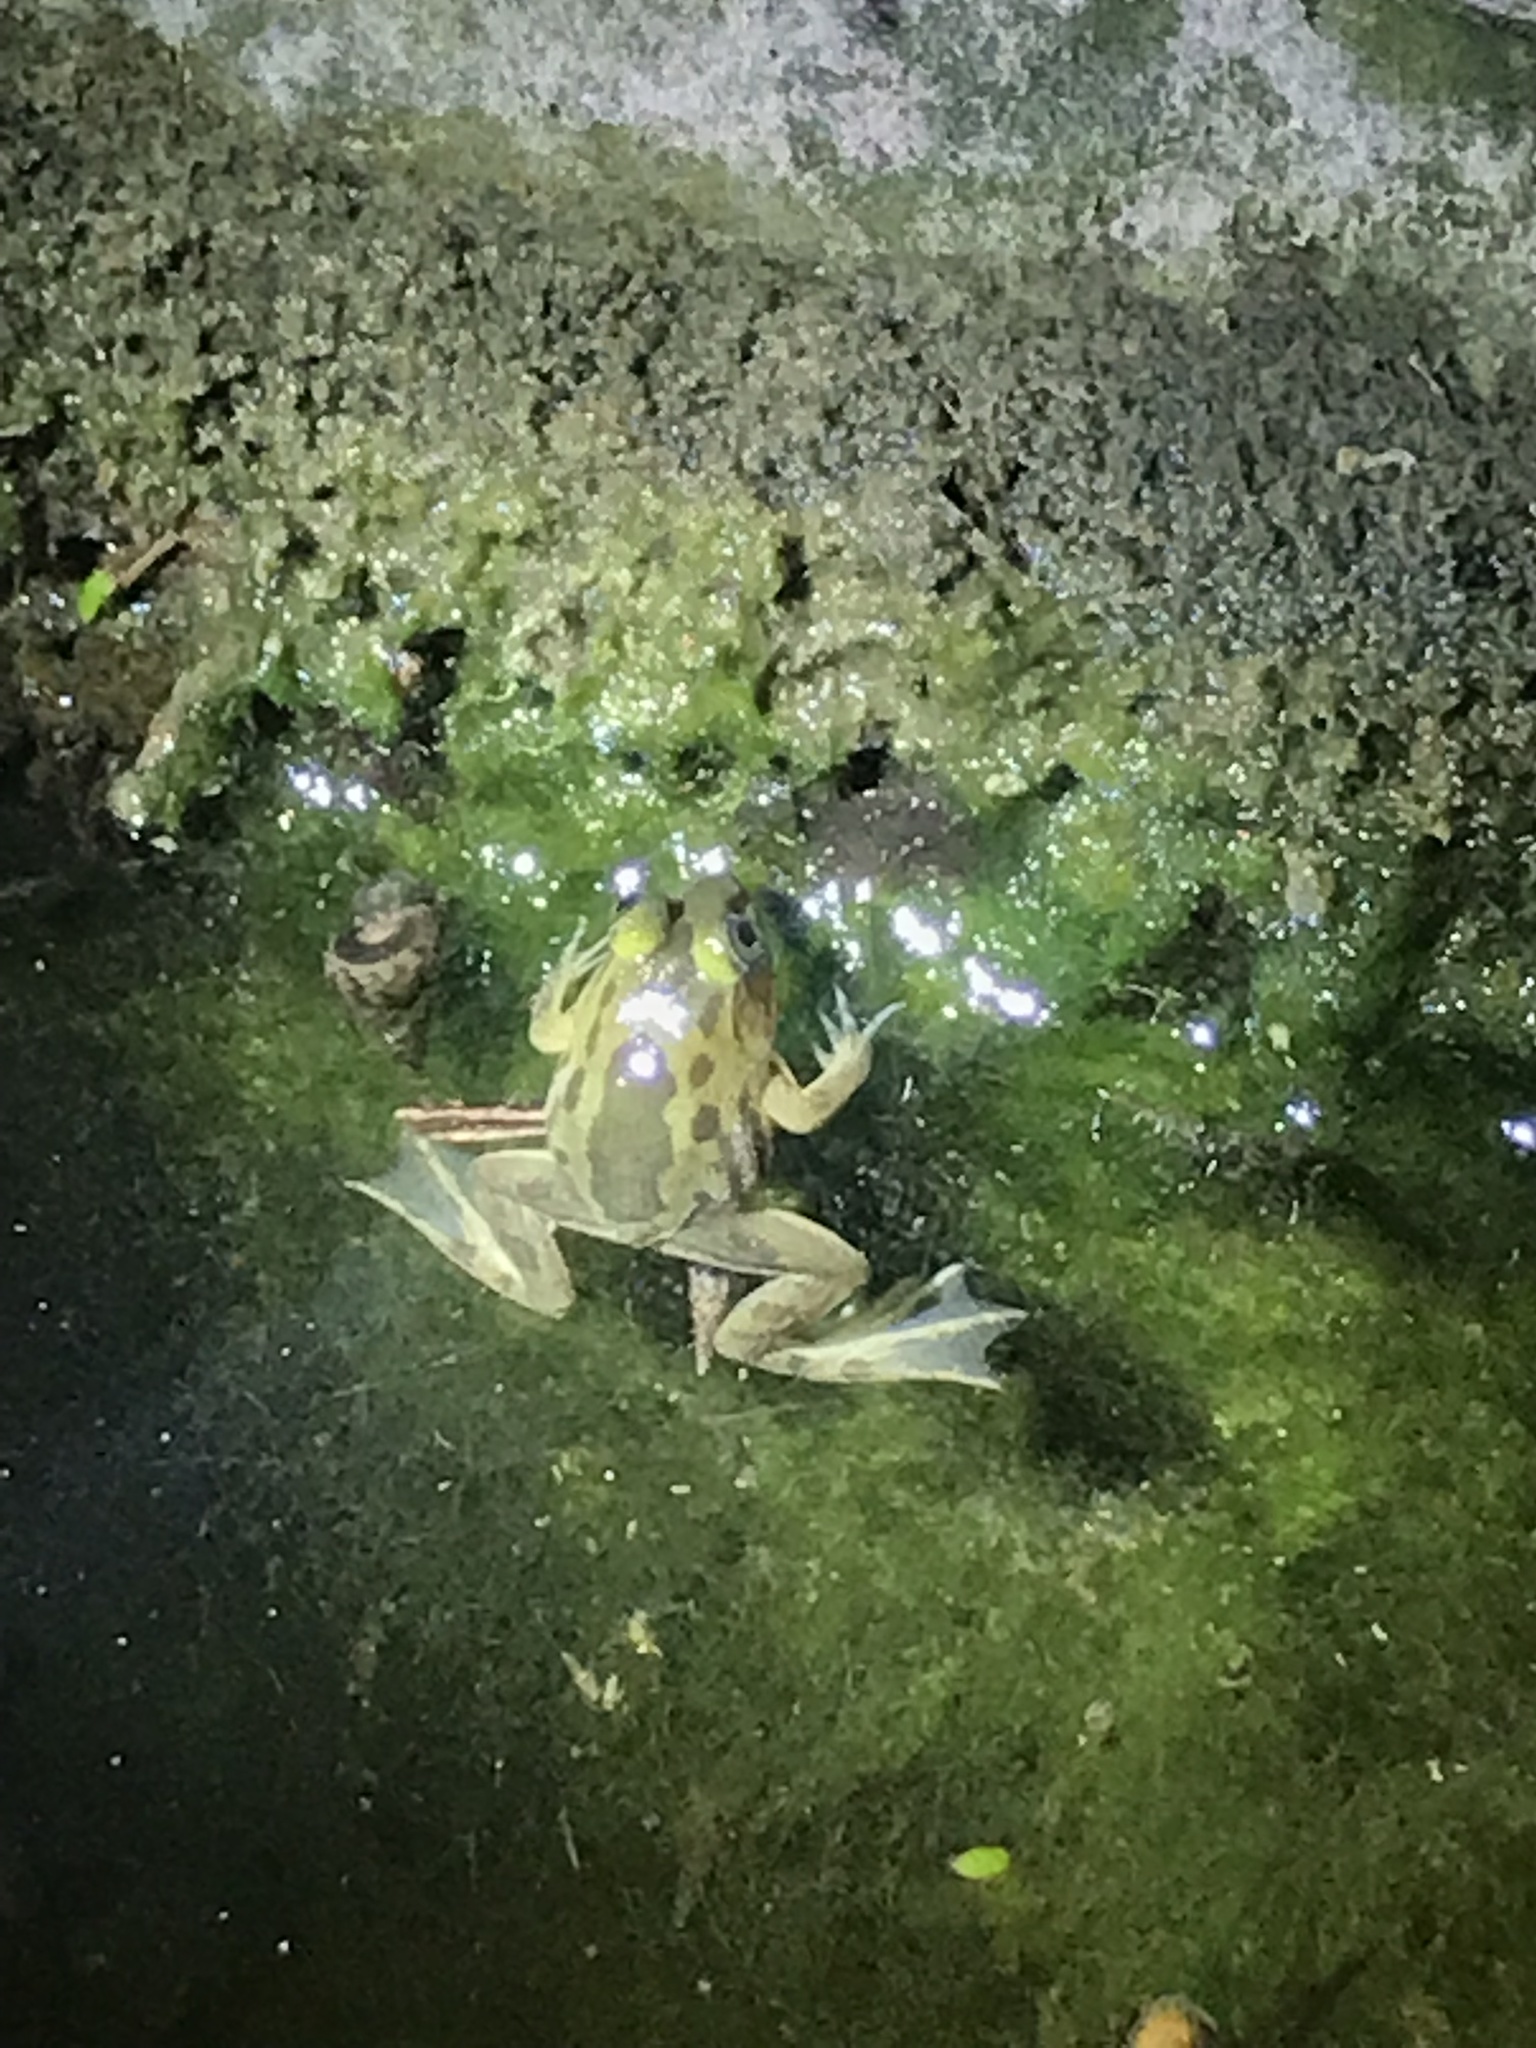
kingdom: Animalia
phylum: Chordata
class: Amphibia
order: Anura
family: Dicroglossidae
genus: Euphlyctis
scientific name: Euphlyctis hexadactylus
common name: Indian green frog
